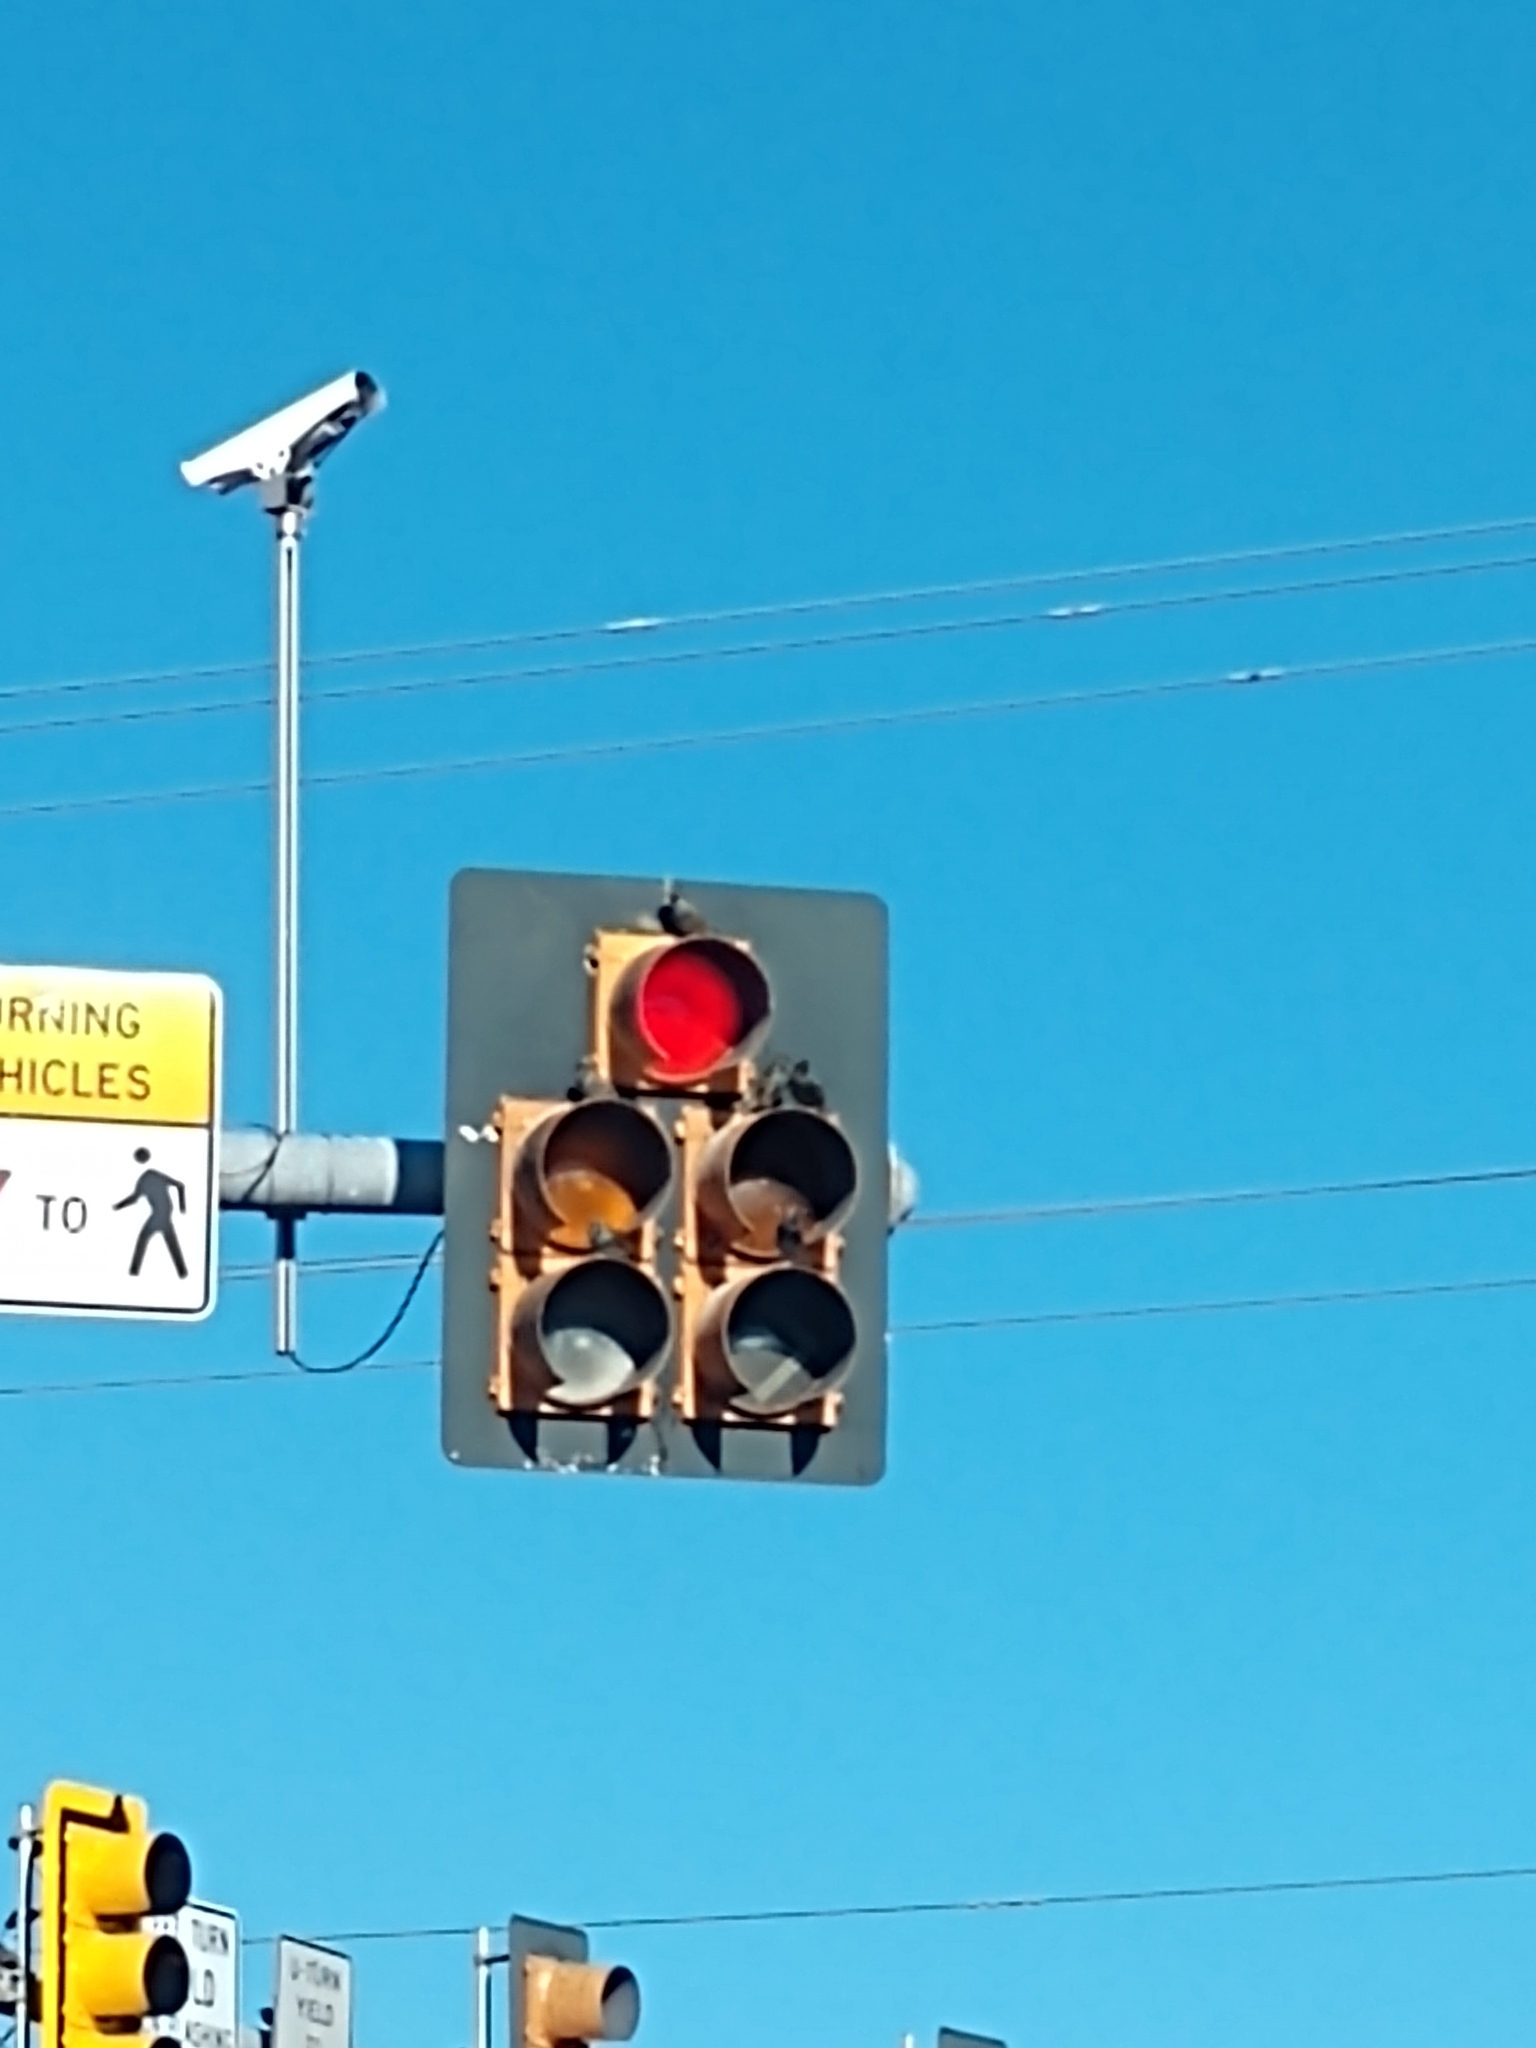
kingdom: Animalia
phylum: Chordata
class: Aves
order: Passeriformes
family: Sturnidae
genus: Sturnus
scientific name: Sturnus vulgaris
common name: Common starling
